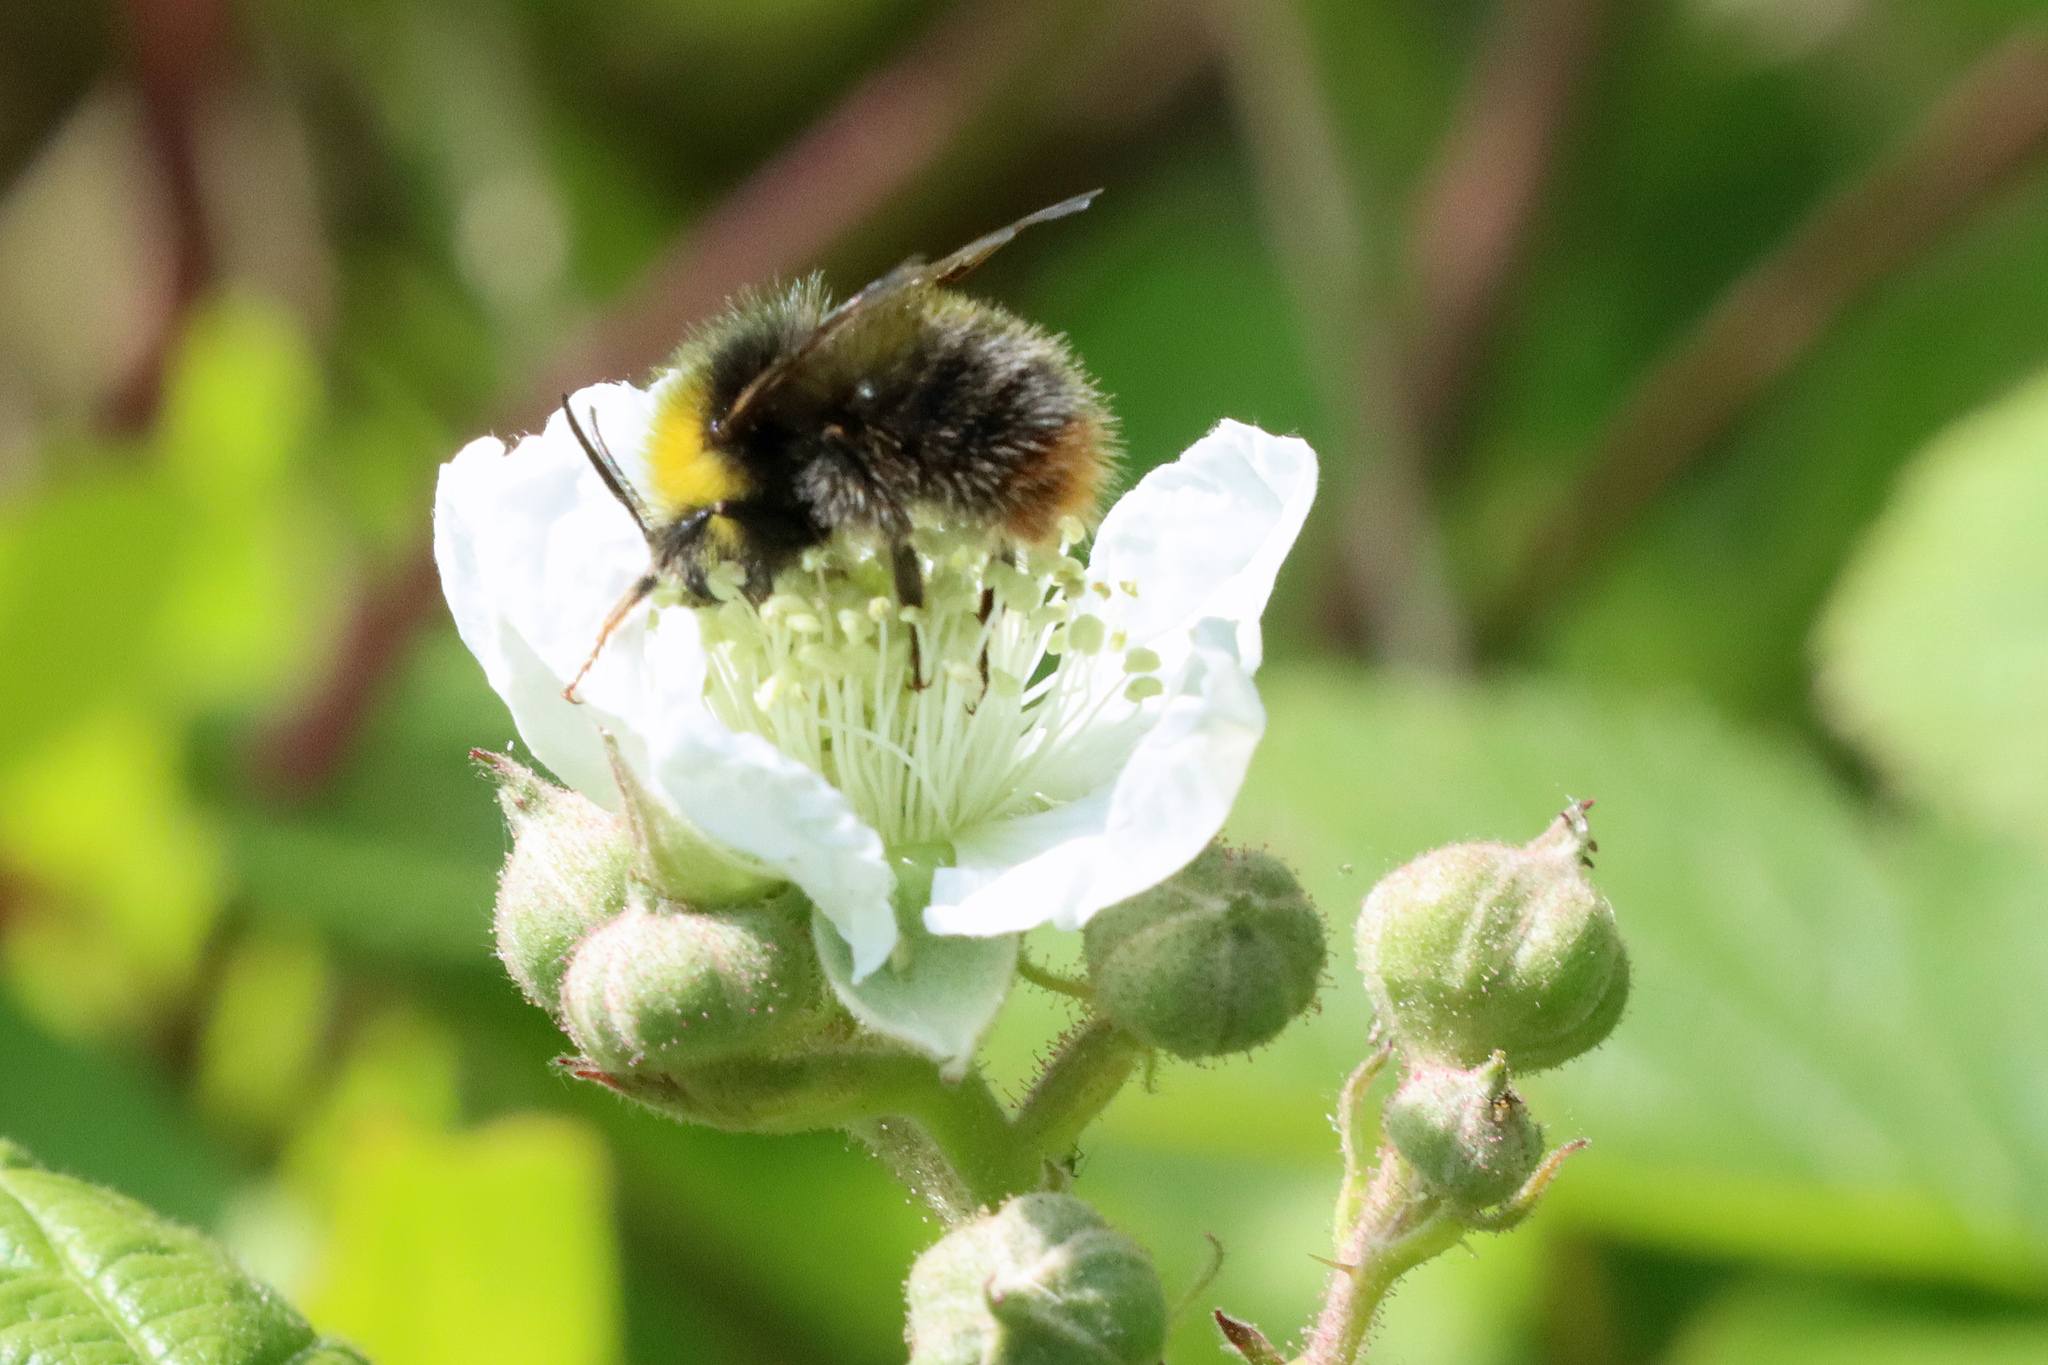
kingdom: Animalia
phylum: Arthropoda
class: Insecta
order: Hymenoptera
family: Apidae
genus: Bombus
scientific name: Bombus pratorum
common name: Early humble-bee
